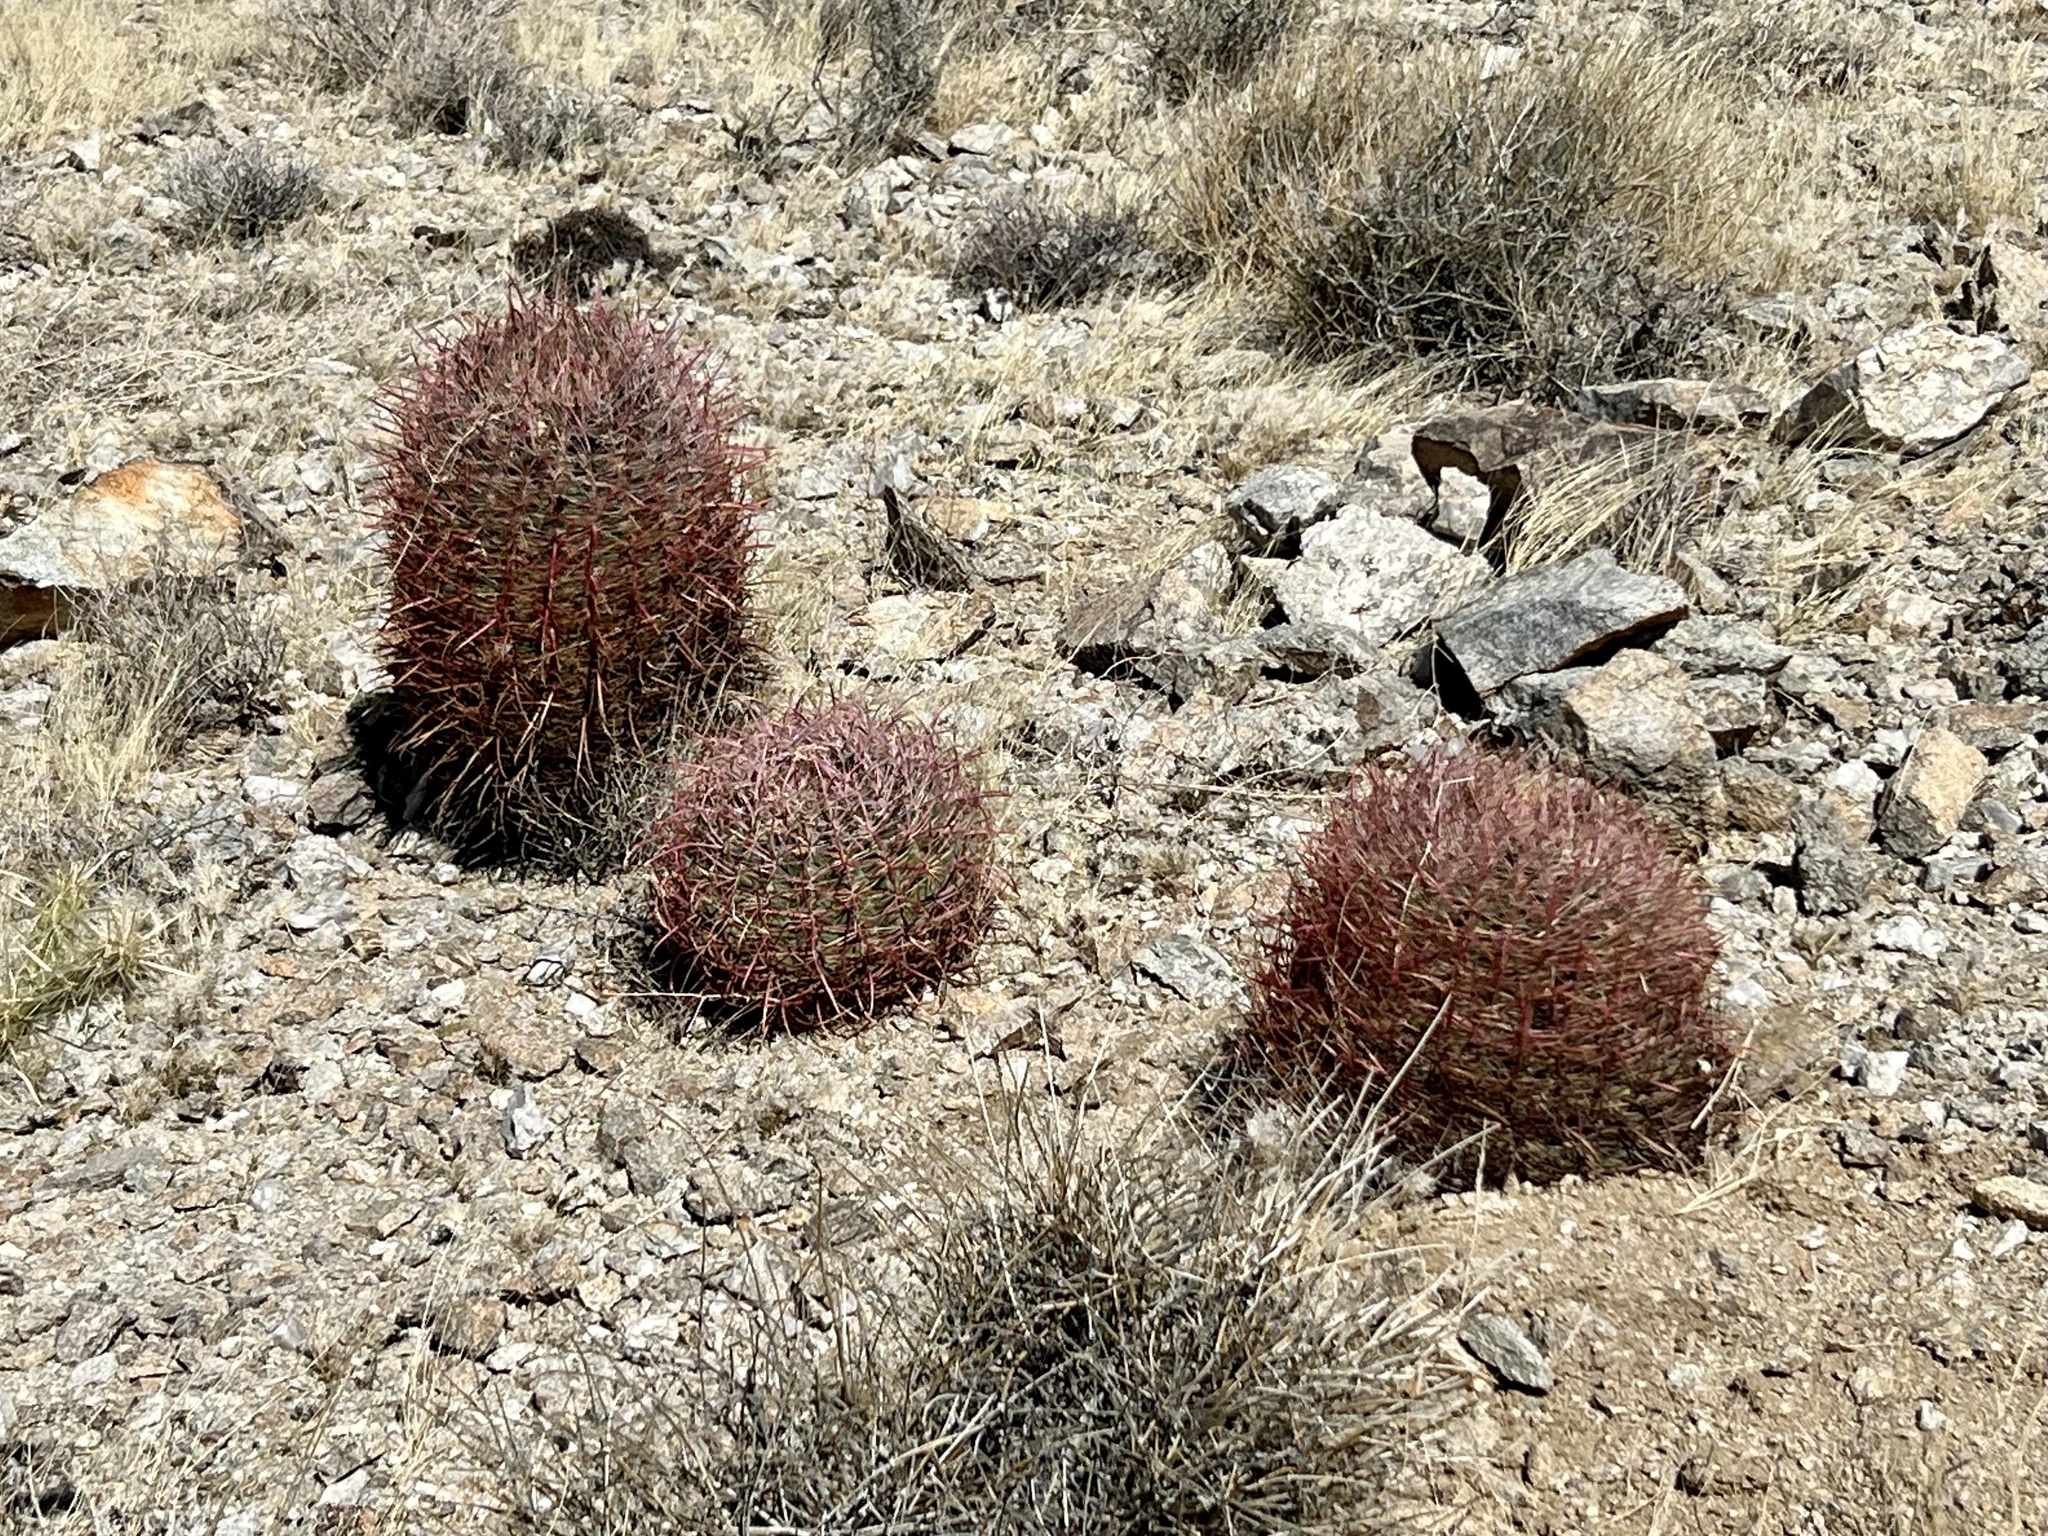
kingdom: Plantae
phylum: Tracheophyta
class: Magnoliopsida
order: Caryophyllales
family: Cactaceae
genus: Ferocactus
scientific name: Ferocactus cylindraceus
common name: California barrel cactus
